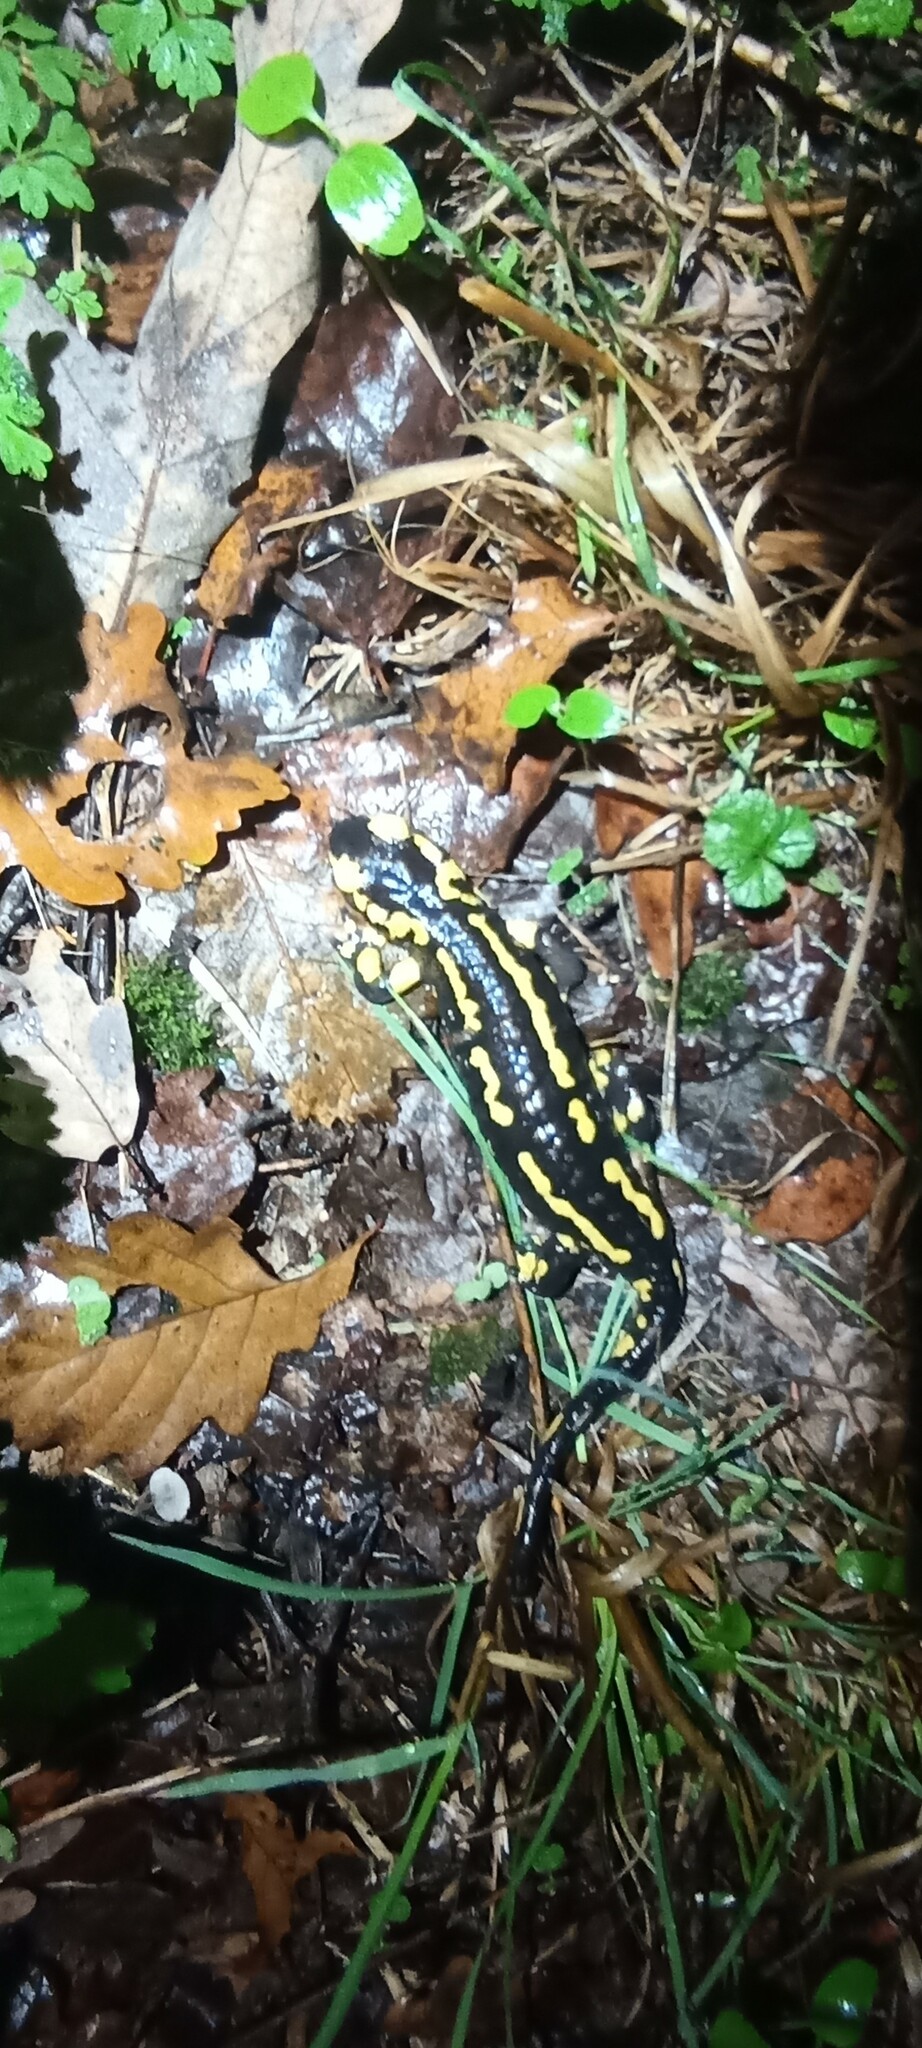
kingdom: Animalia
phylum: Chordata
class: Amphibia
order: Caudata
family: Salamandridae
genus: Salamandra
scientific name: Salamandra salamandra
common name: Fire salamander
